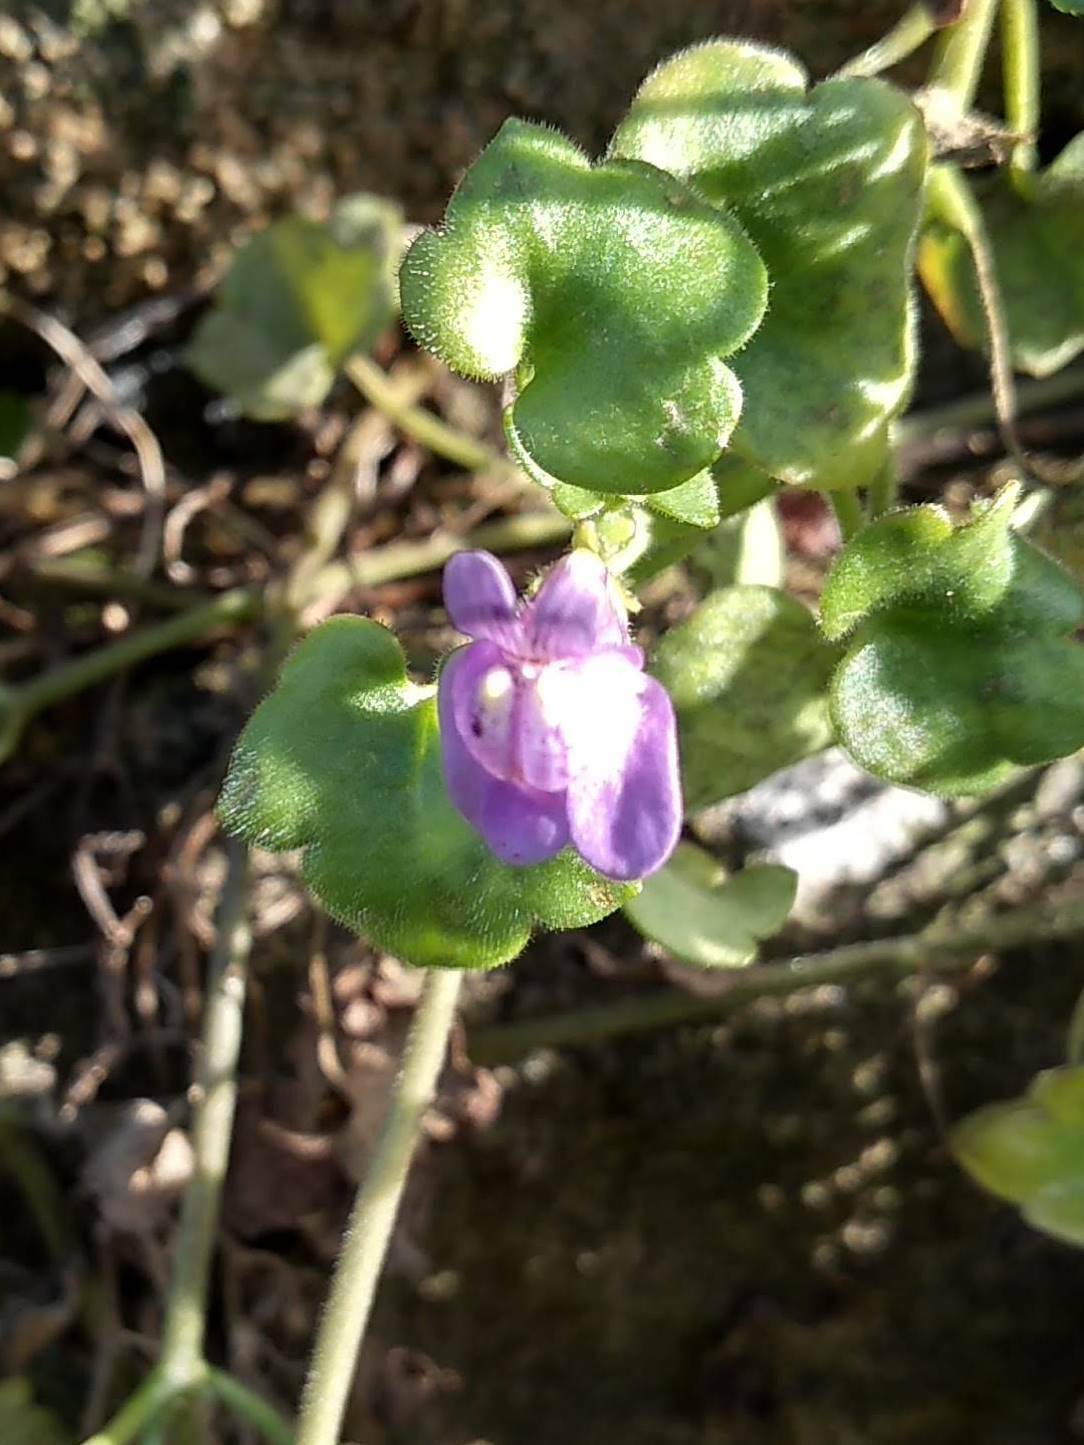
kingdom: Plantae
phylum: Tracheophyta
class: Magnoliopsida
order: Lamiales
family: Plantaginaceae
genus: Cymbalaria
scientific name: Cymbalaria muralis
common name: Ivy-leaved toadflax
